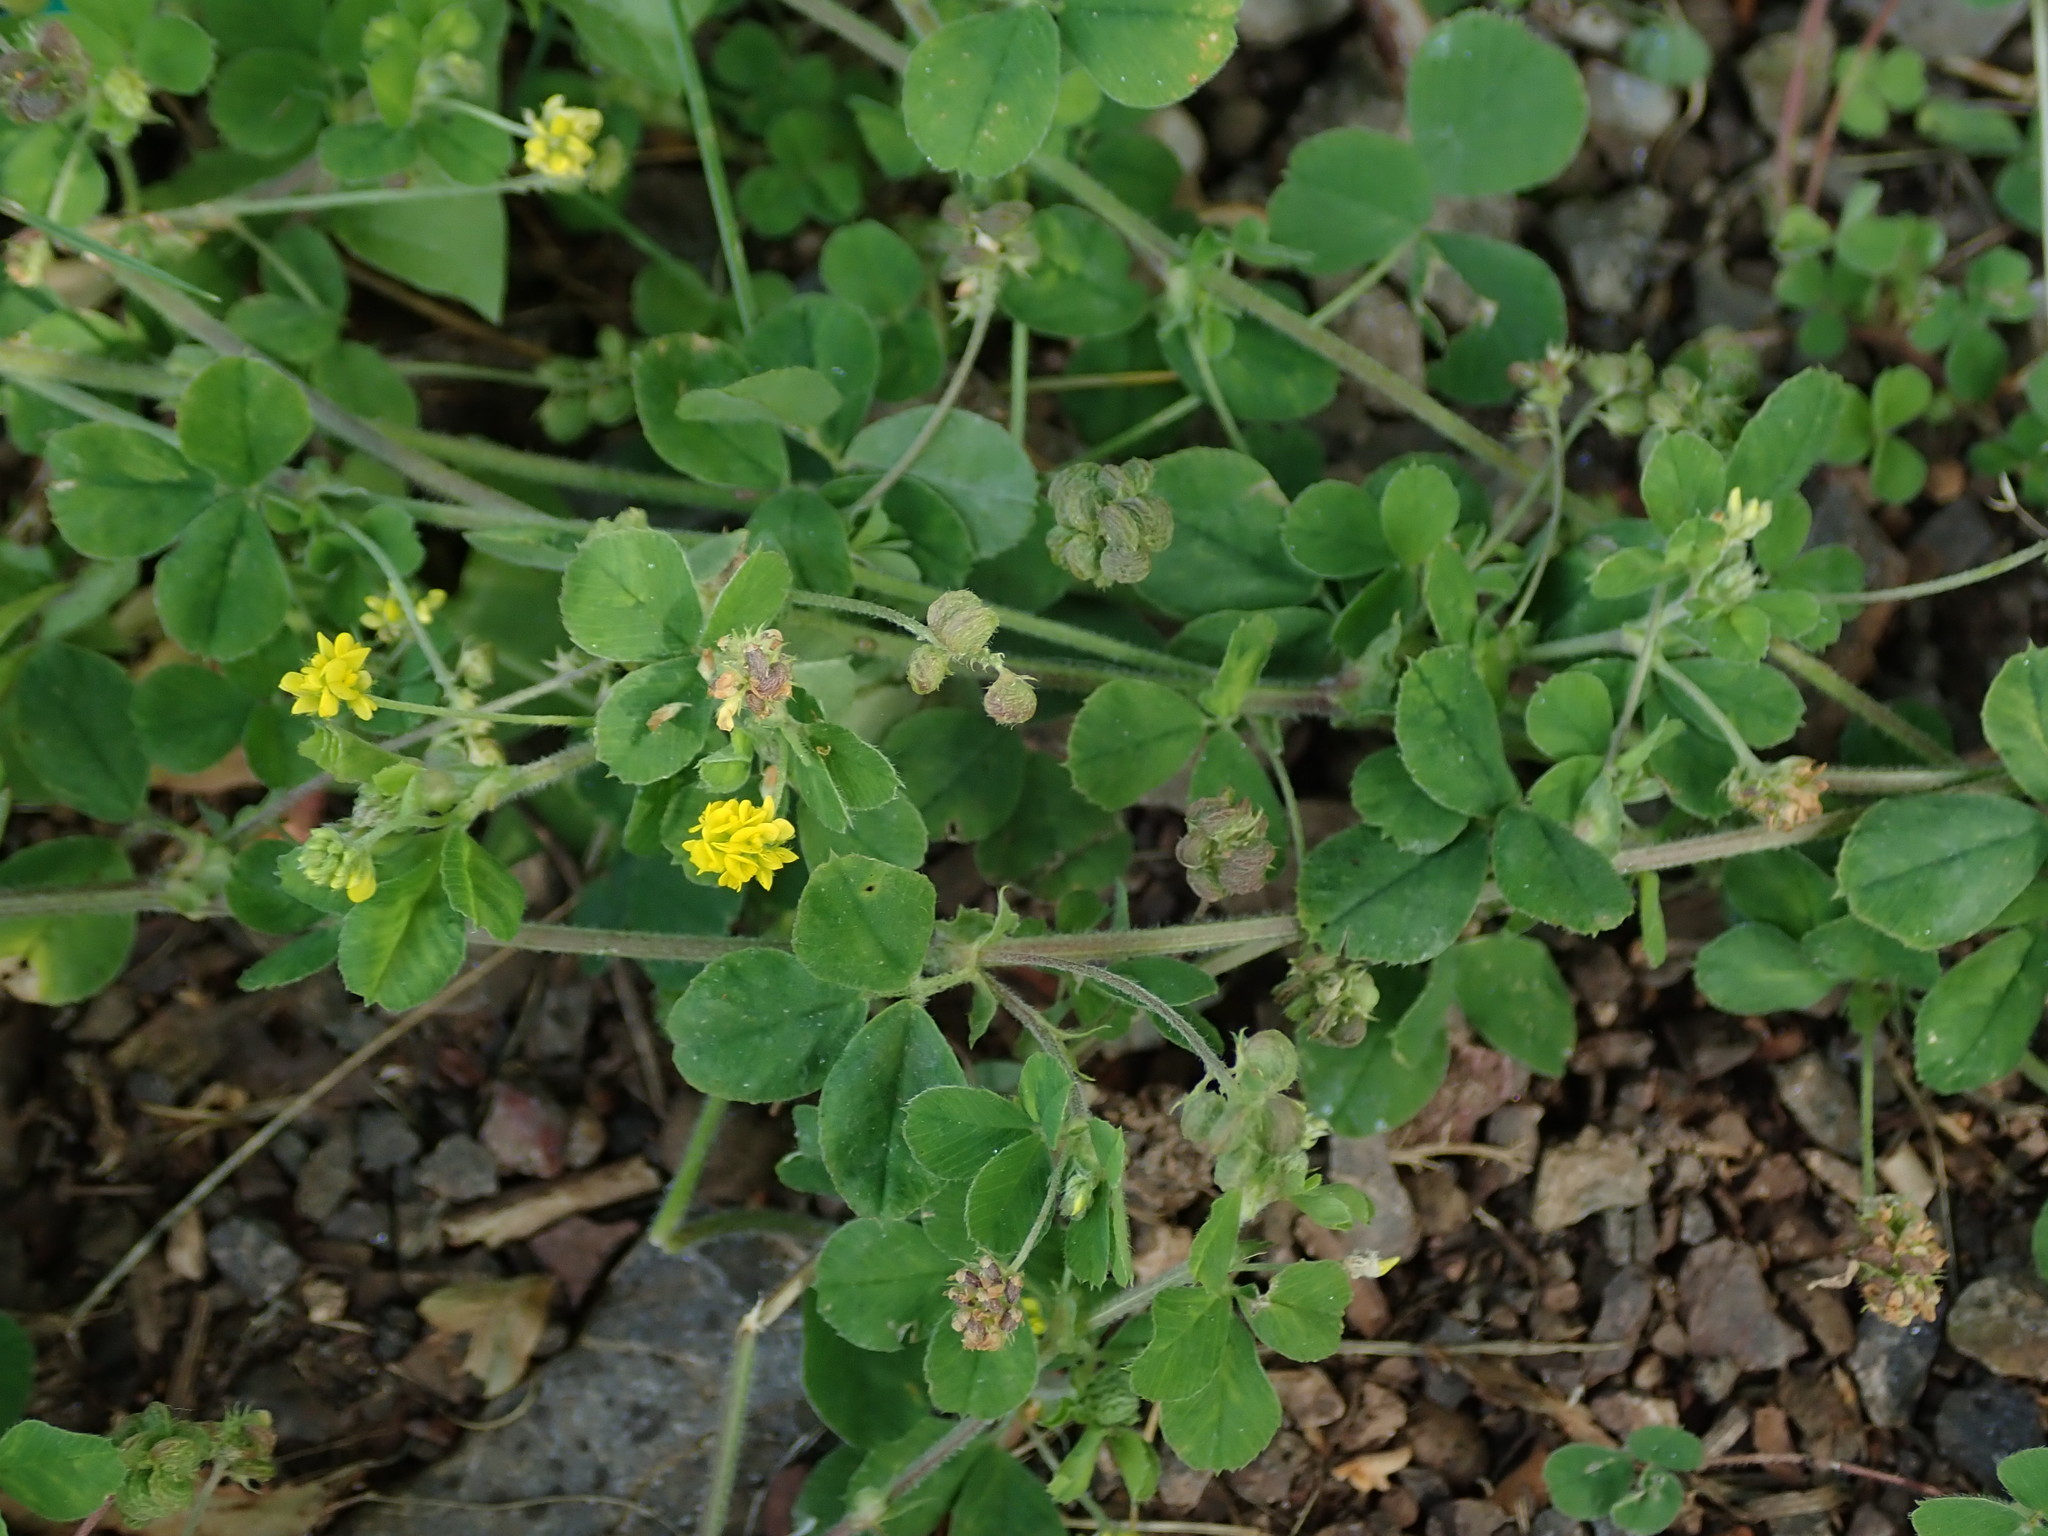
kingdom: Plantae
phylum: Tracheophyta
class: Magnoliopsida
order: Fabales
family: Fabaceae
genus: Medicago
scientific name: Medicago lupulina
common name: Black medick
